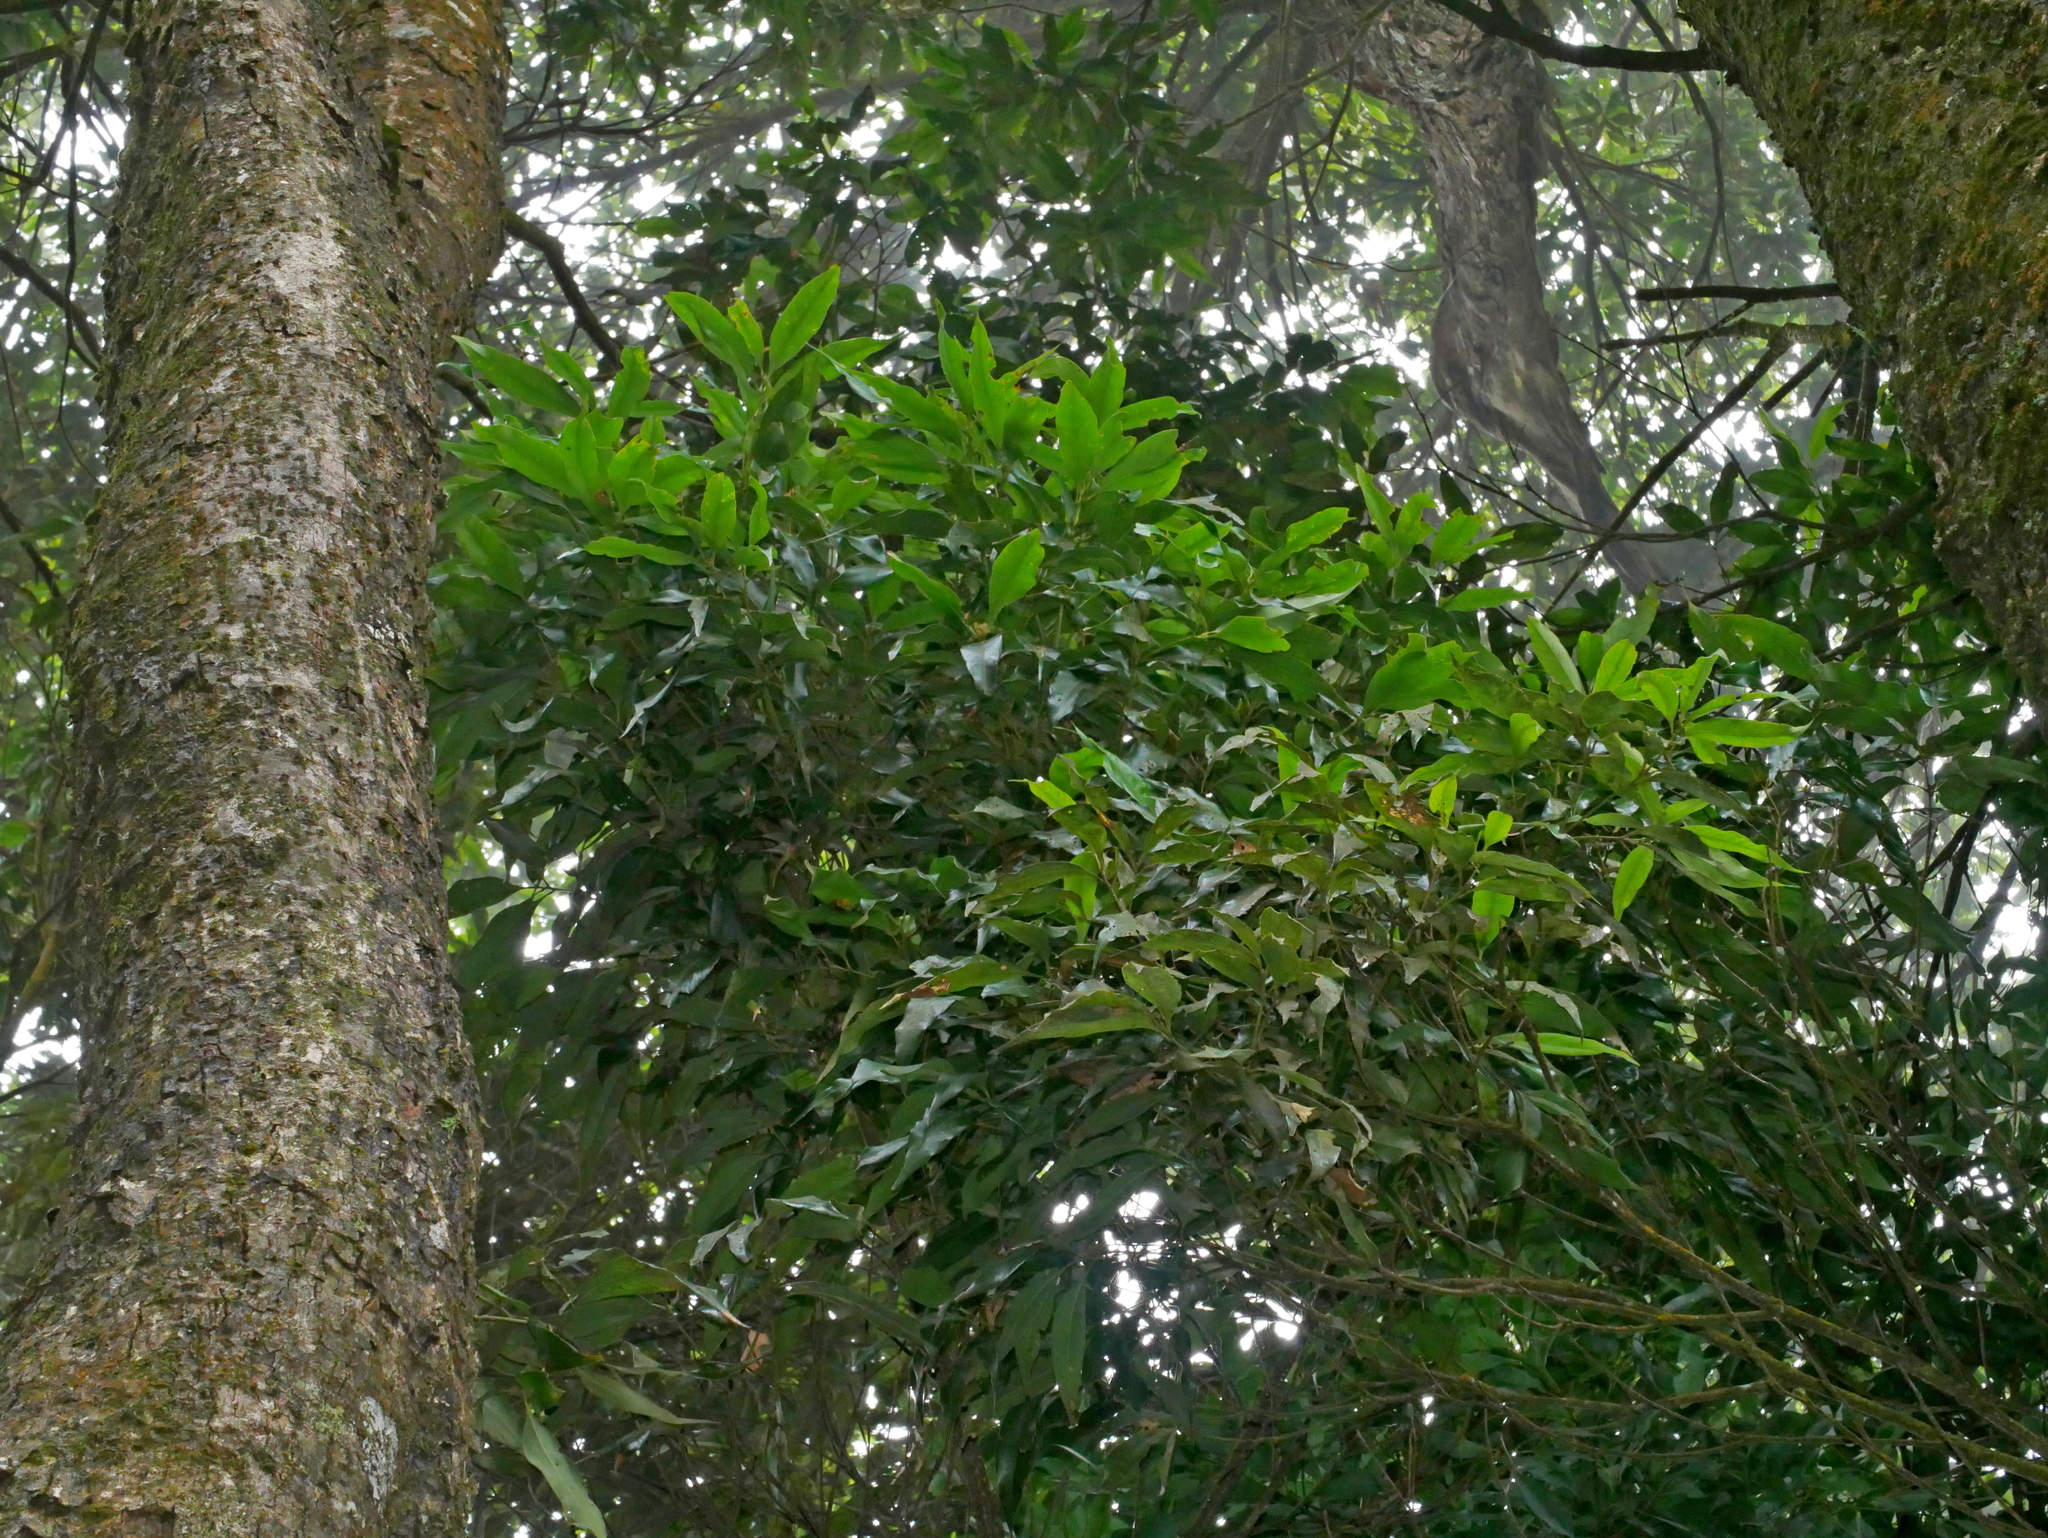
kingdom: Plantae
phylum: Tracheophyta
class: Magnoliopsida
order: Fagales
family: Fagaceae
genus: Lithocarpus
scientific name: Lithocarpus nantoensis
